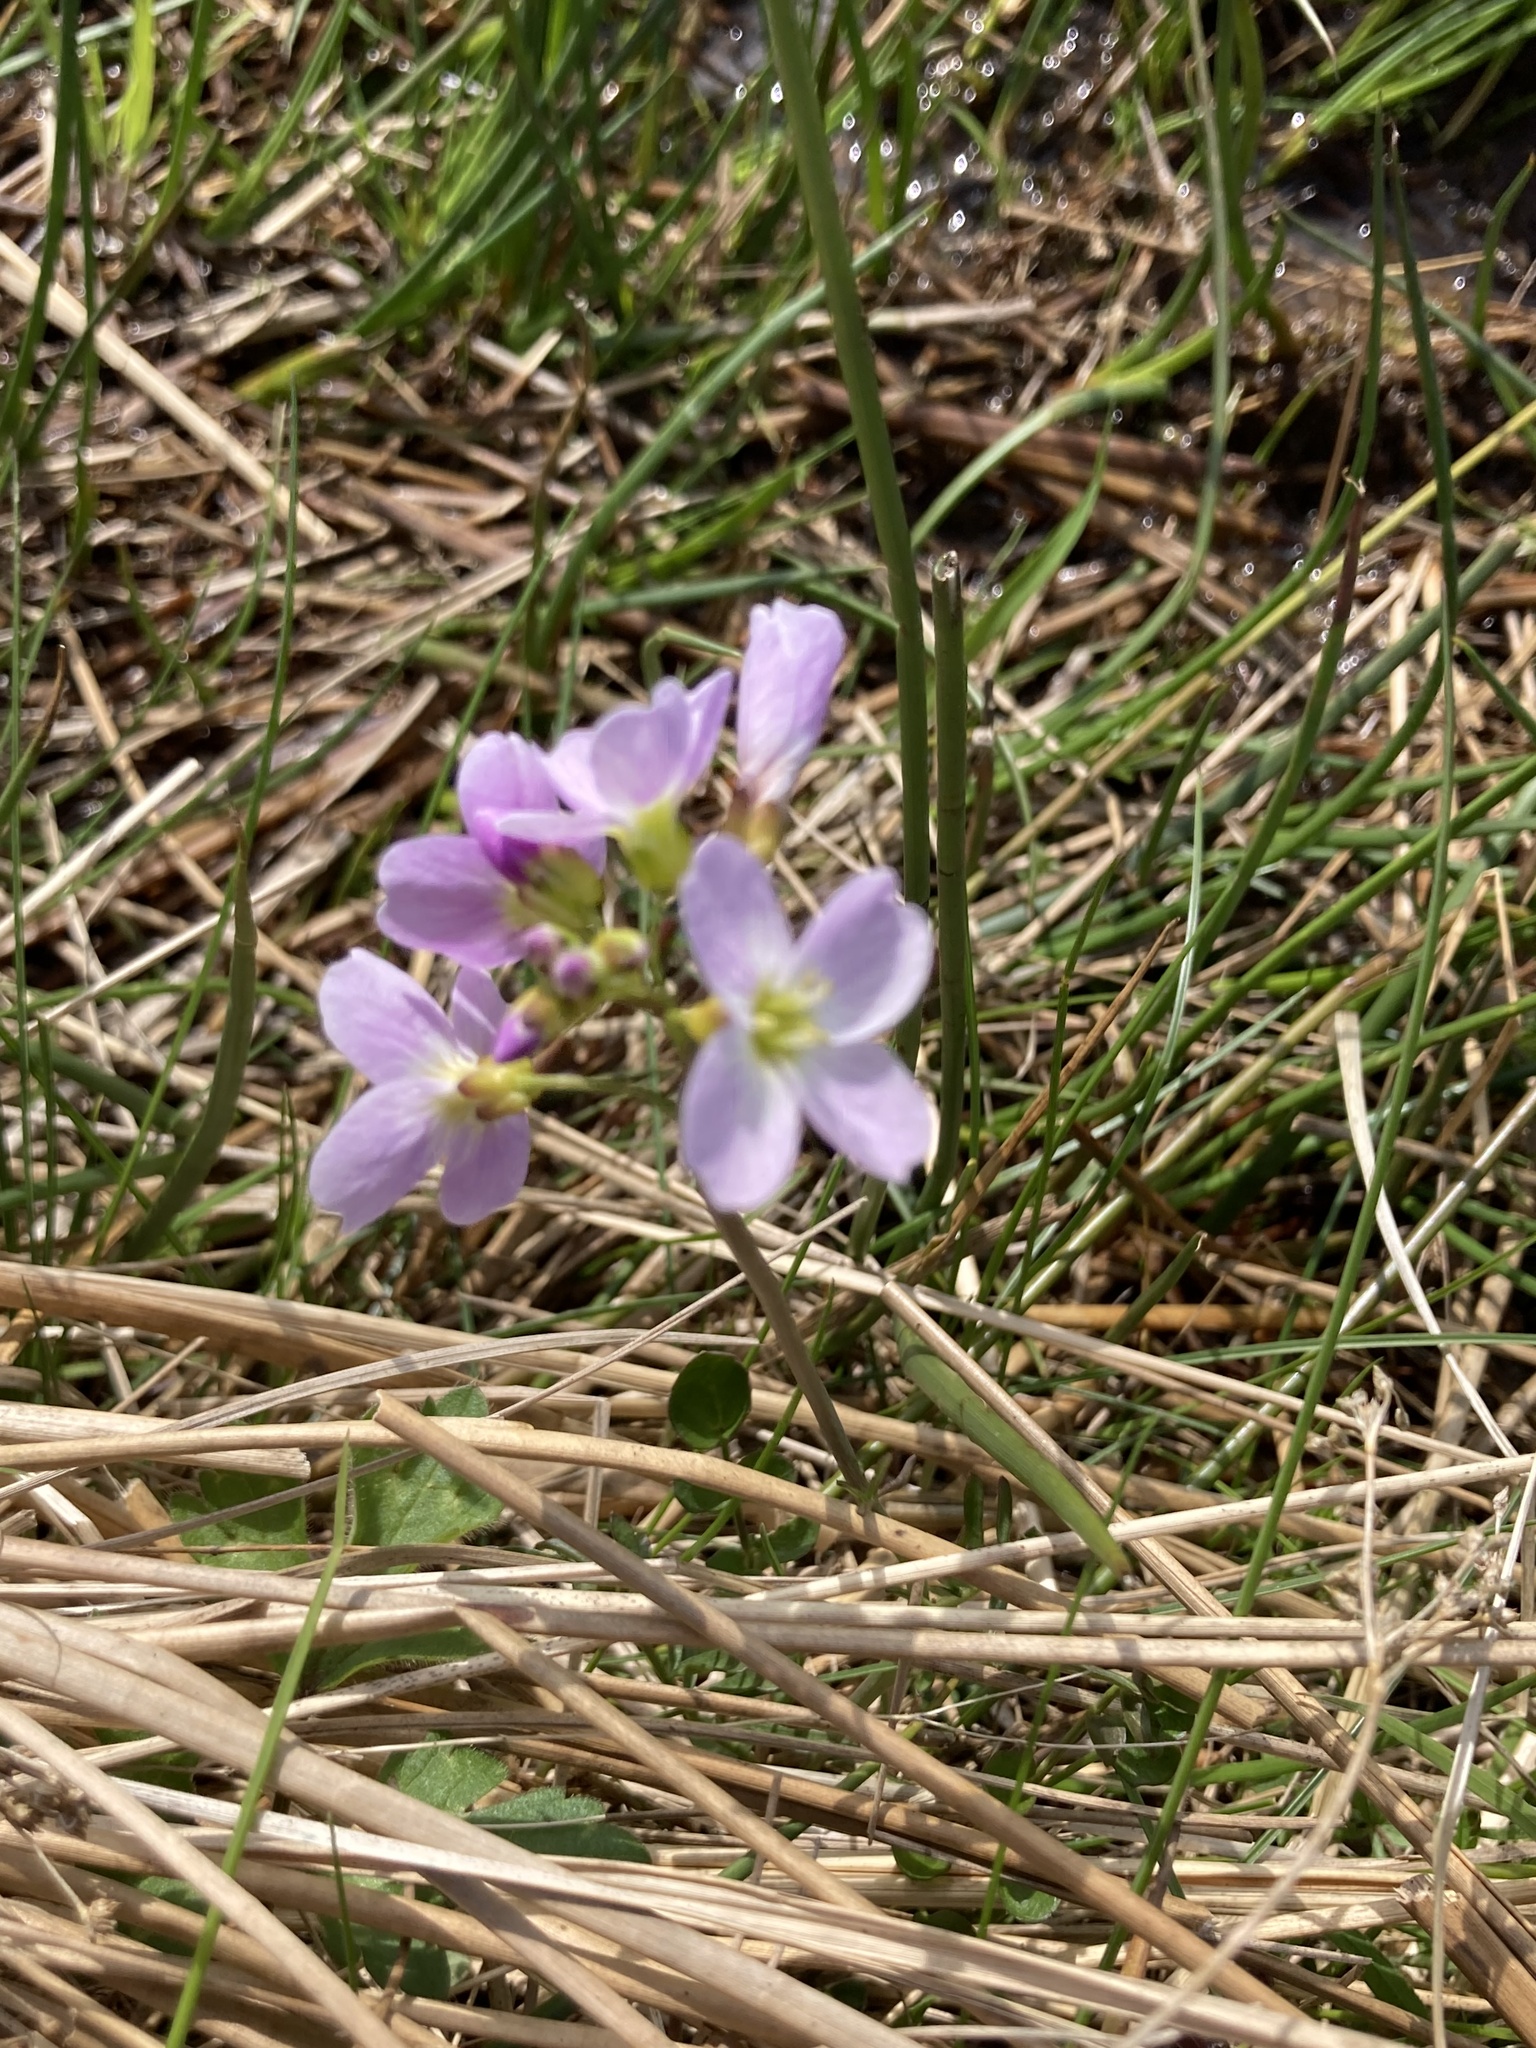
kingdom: Plantae
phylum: Tracheophyta
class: Magnoliopsida
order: Brassicales
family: Brassicaceae
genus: Cardamine
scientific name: Cardamine pratensis
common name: Cuckoo flower
